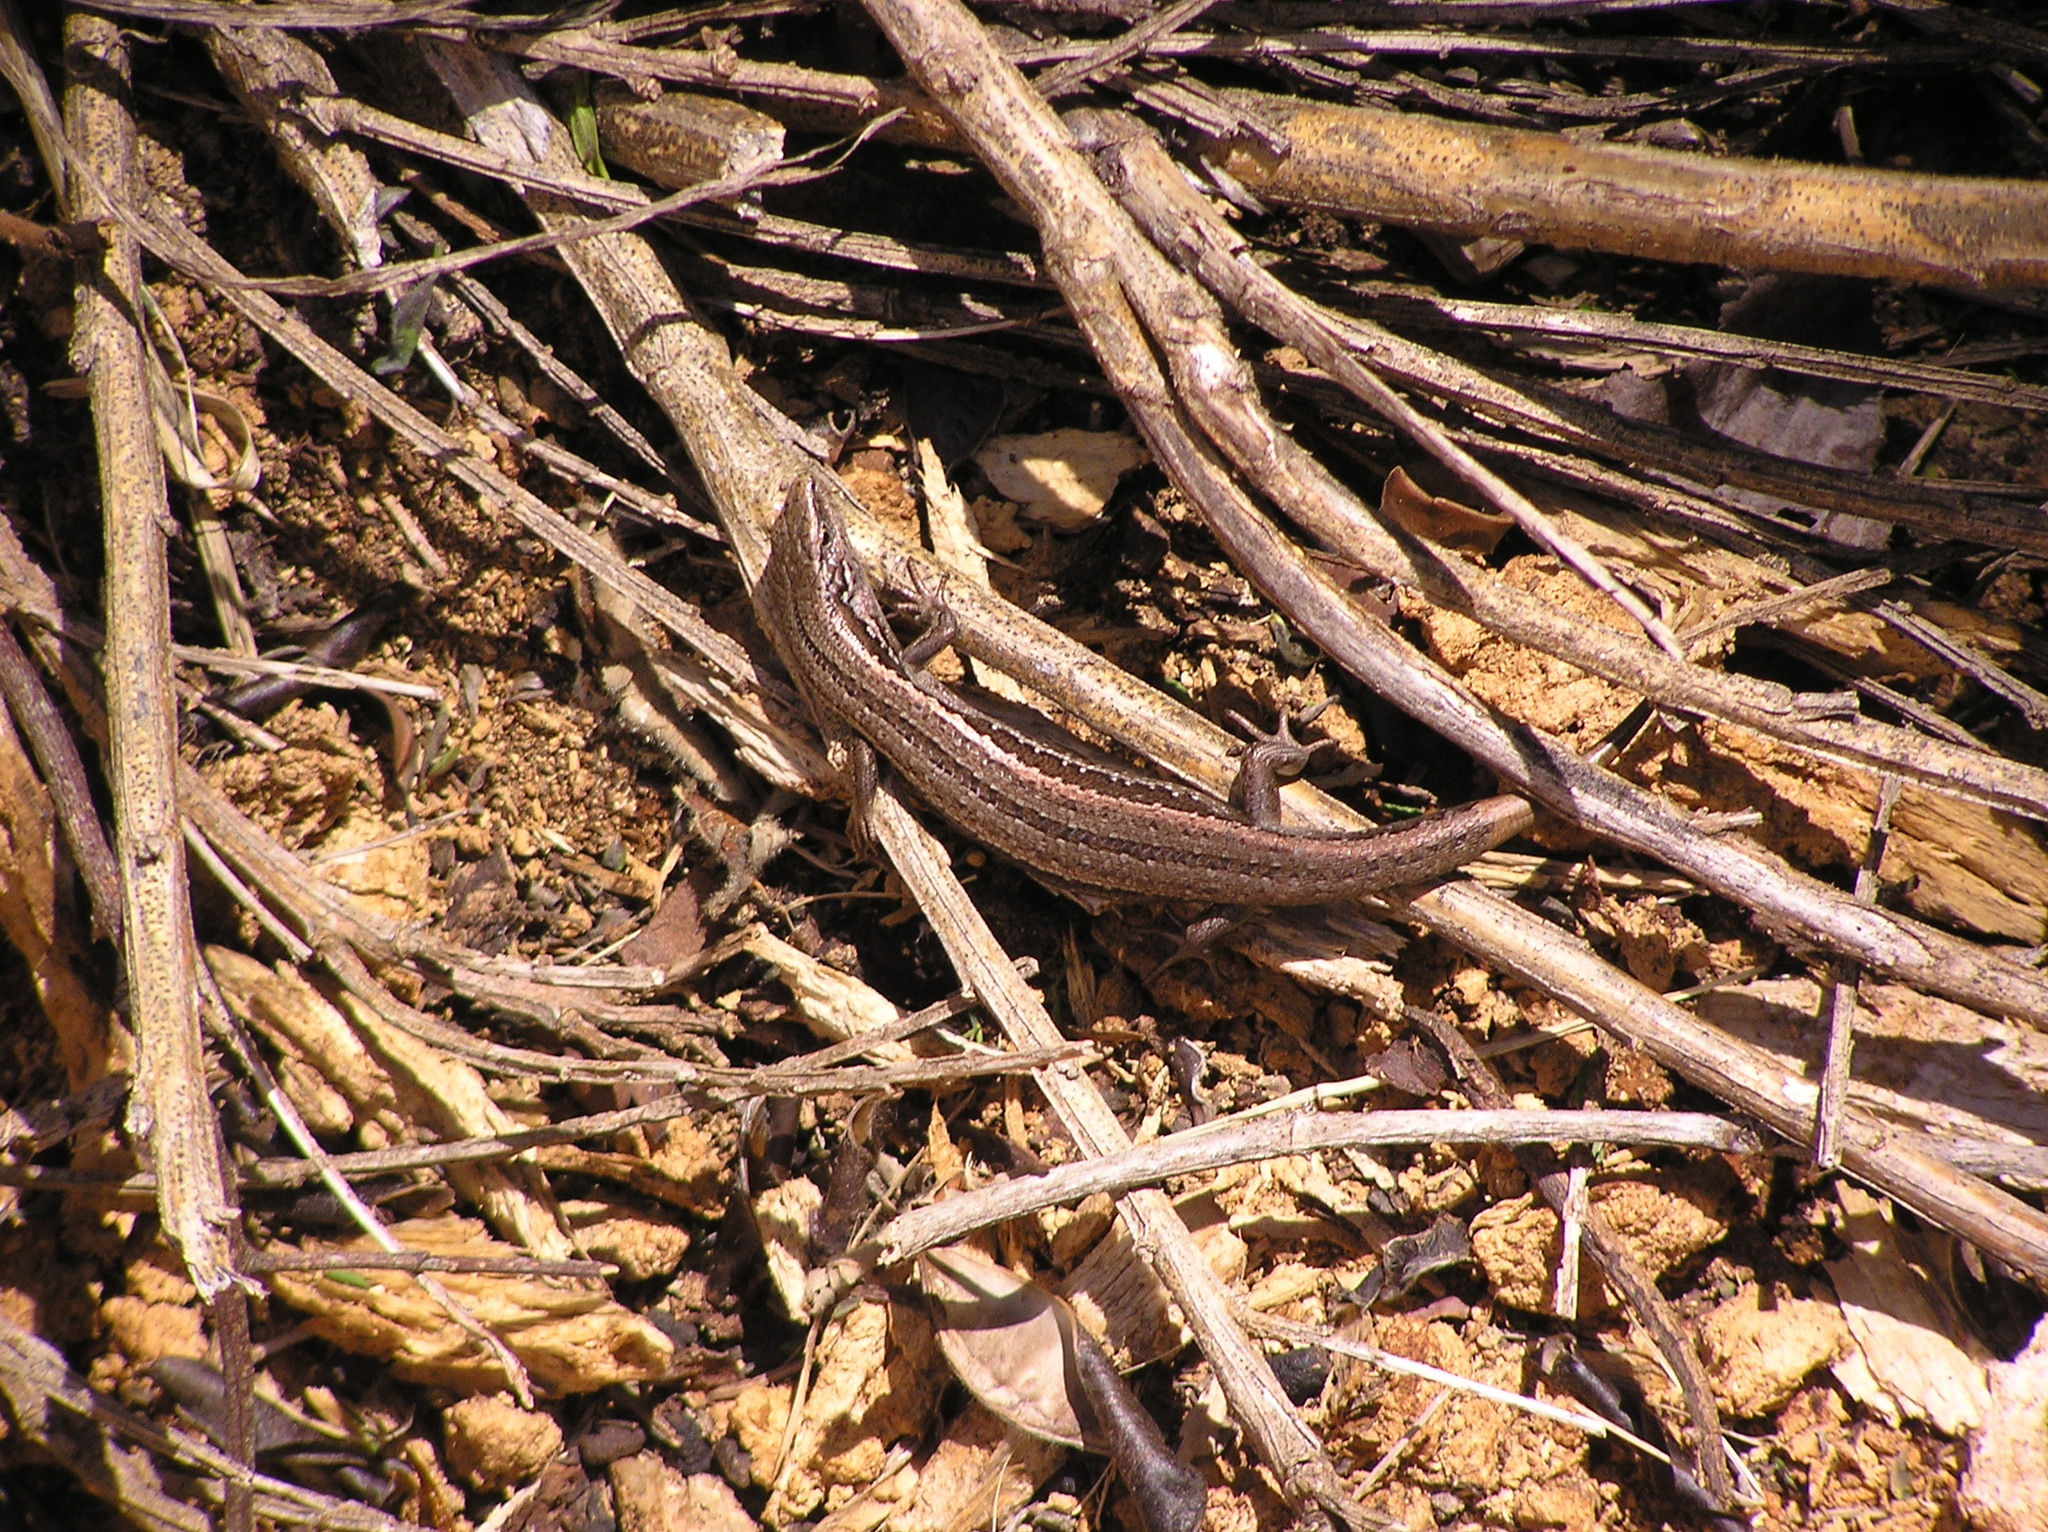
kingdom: Animalia
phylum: Chordata
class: Squamata
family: Scincidae
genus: Oligosoma
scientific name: Oligosoma polychroma
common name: Common new zealand skink
